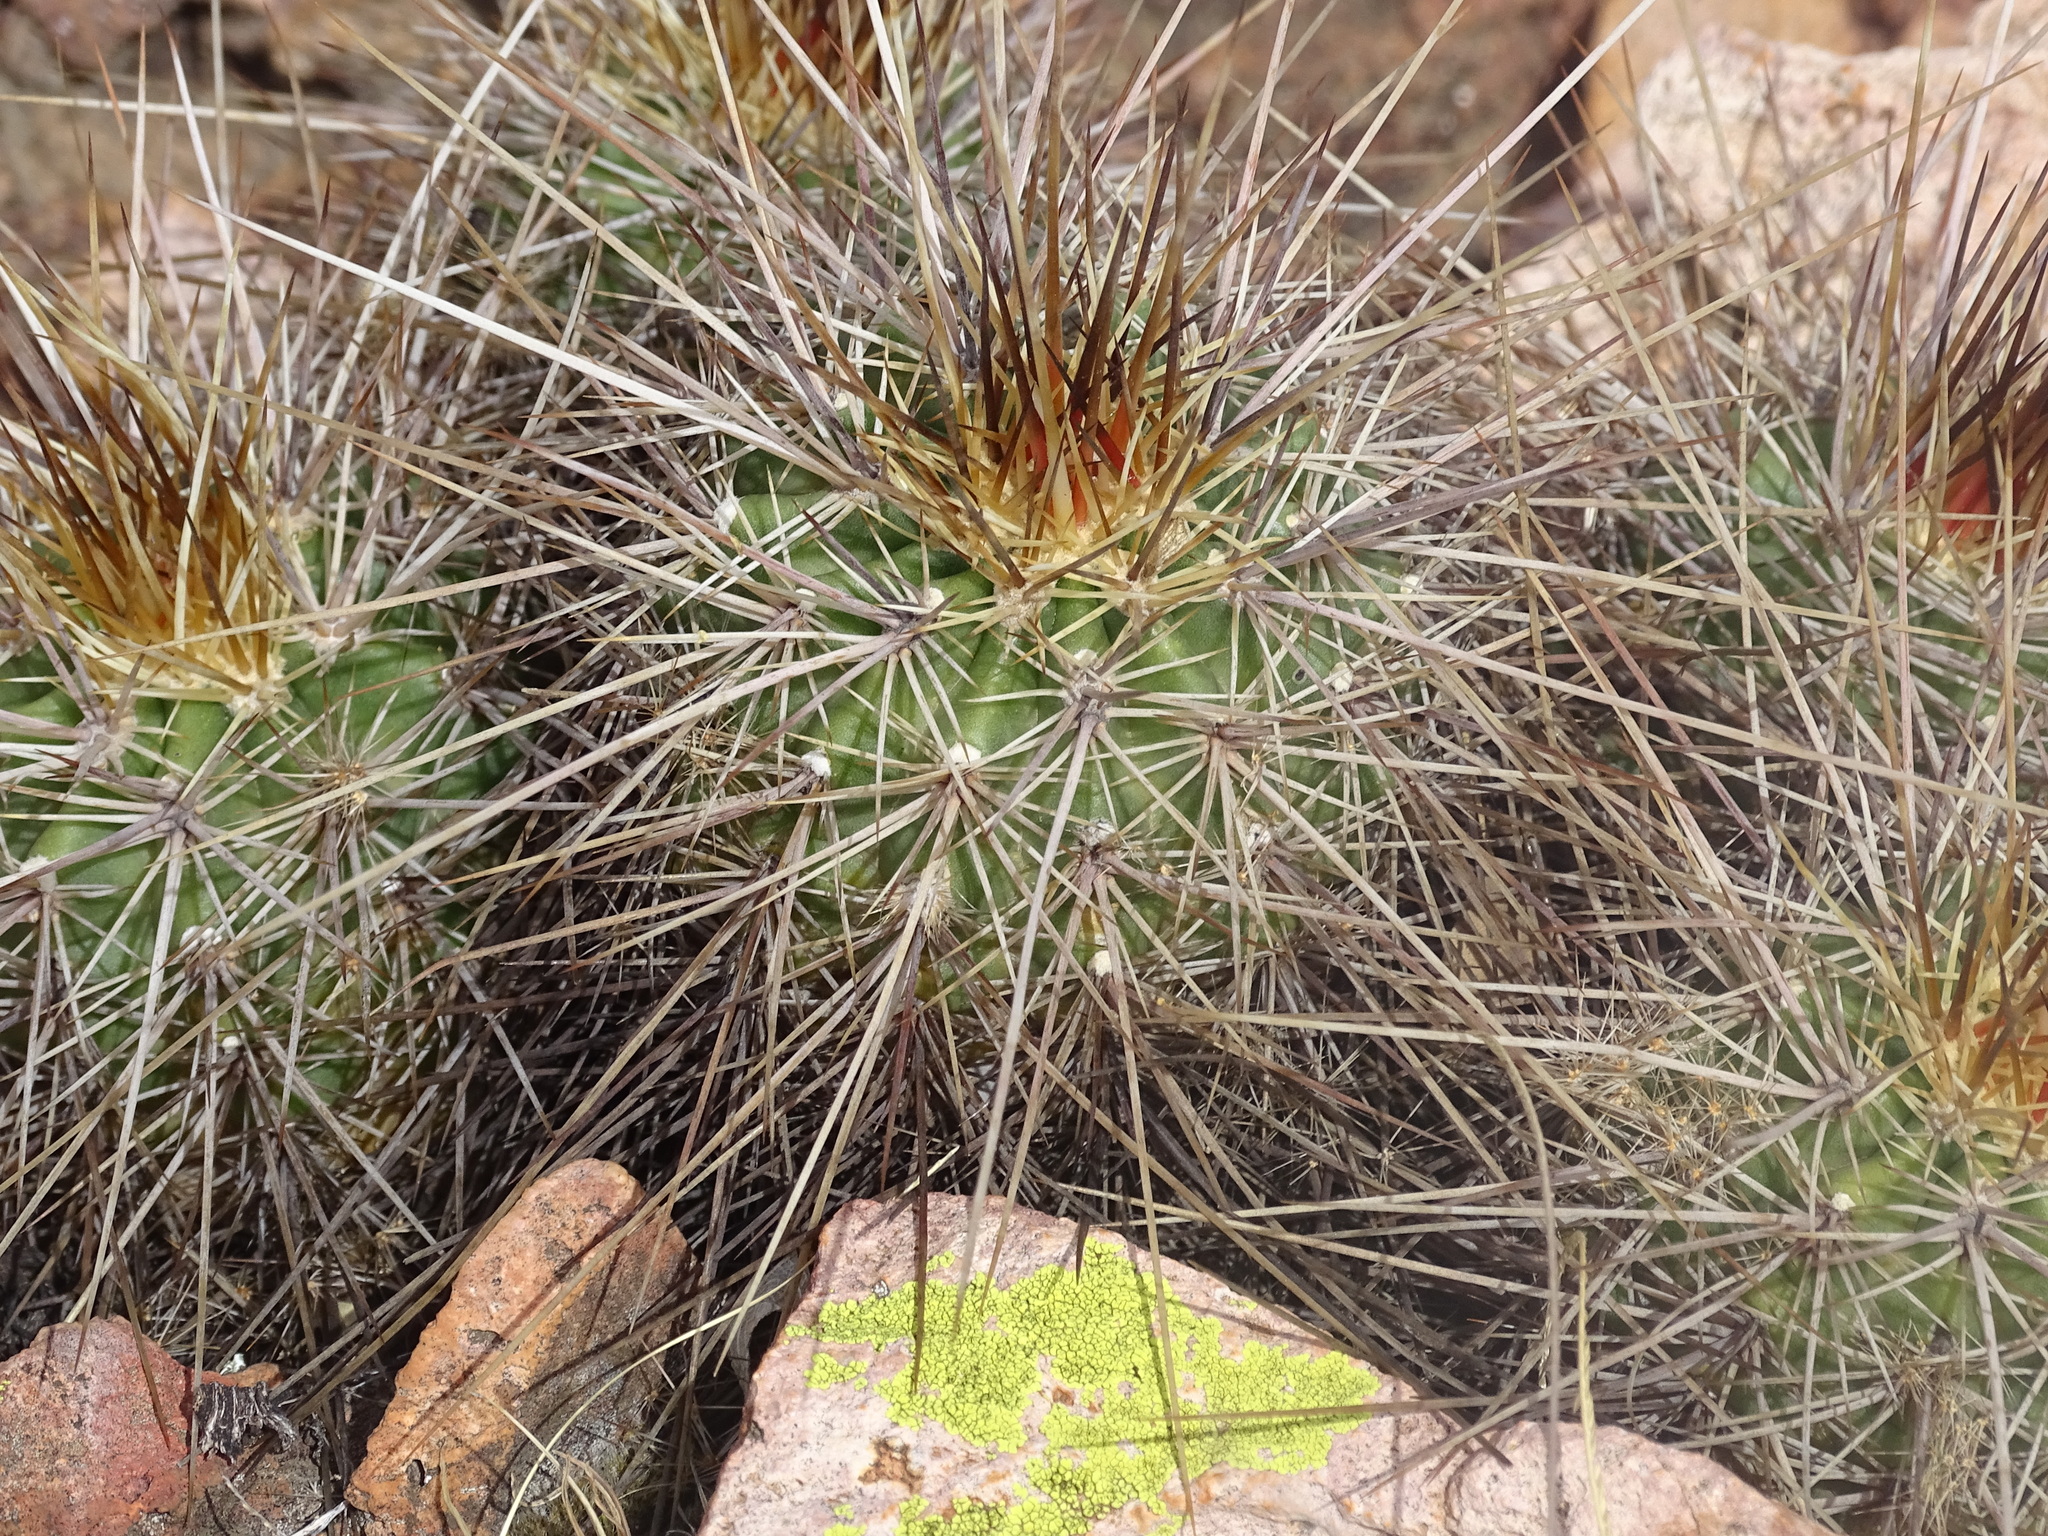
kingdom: Plantae
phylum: Tracheophyta
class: Magnoliopsida
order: Caryophyllales
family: Cactaceae
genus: Echinocereus
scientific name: Echinocereus acifer
